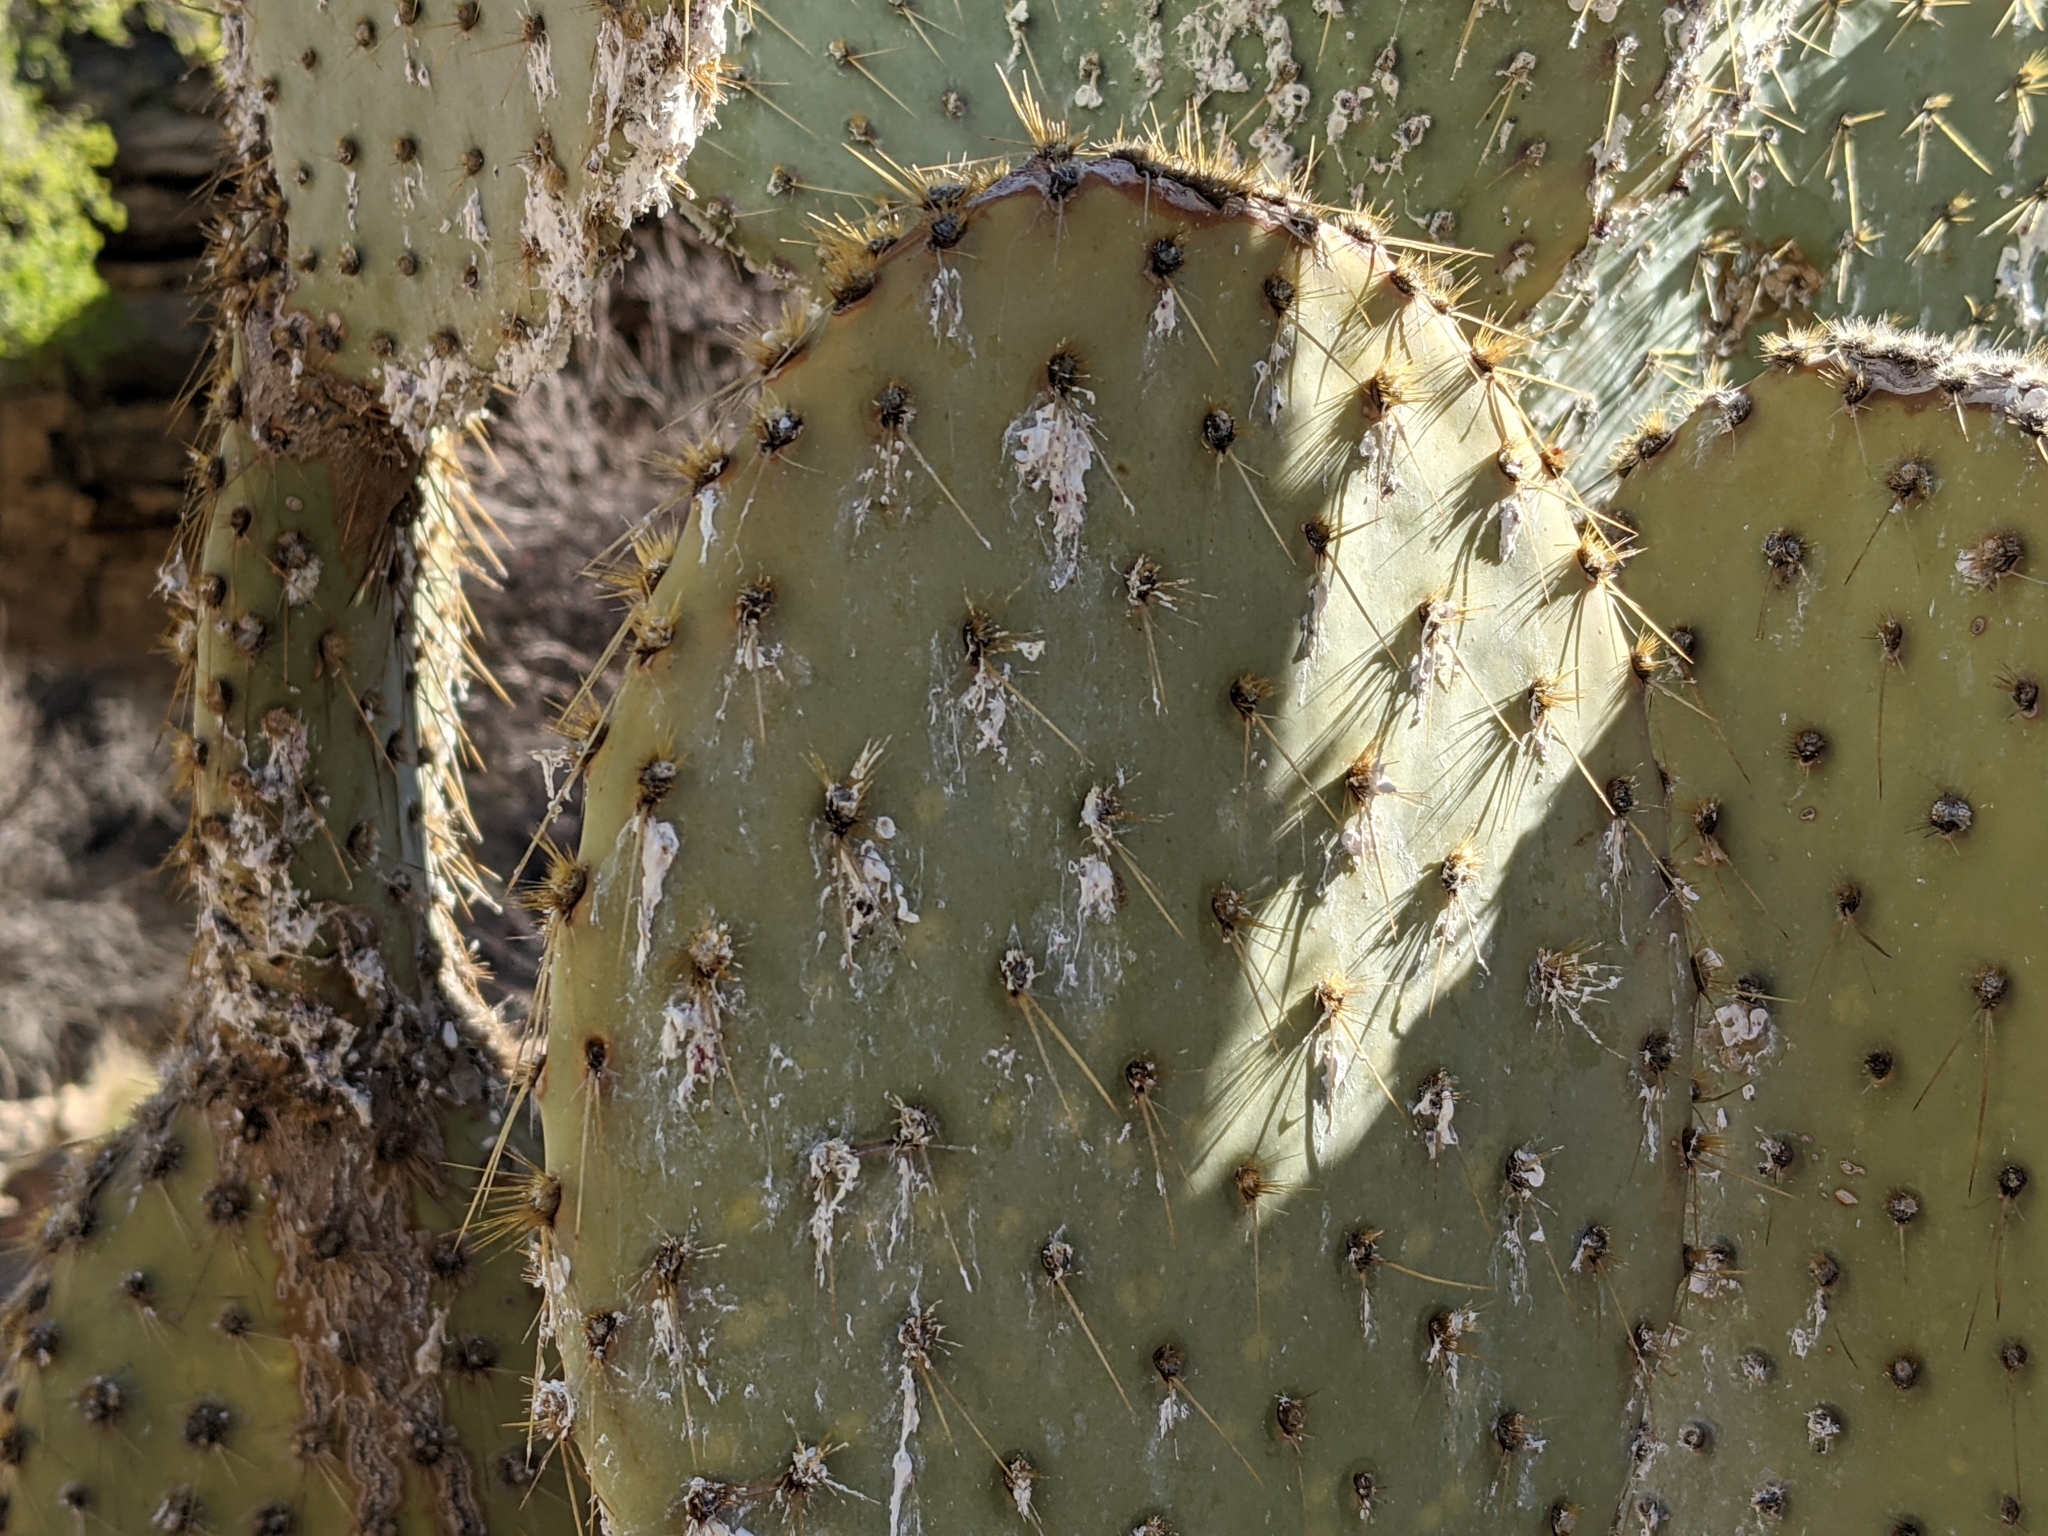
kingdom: Plantae
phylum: Tracheophyta
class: Magnoliopsida
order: Caryophyllales
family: Cactaceae
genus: Opuntia
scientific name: Opuntia chlorotica
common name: Dollar-joint prickly-pear
